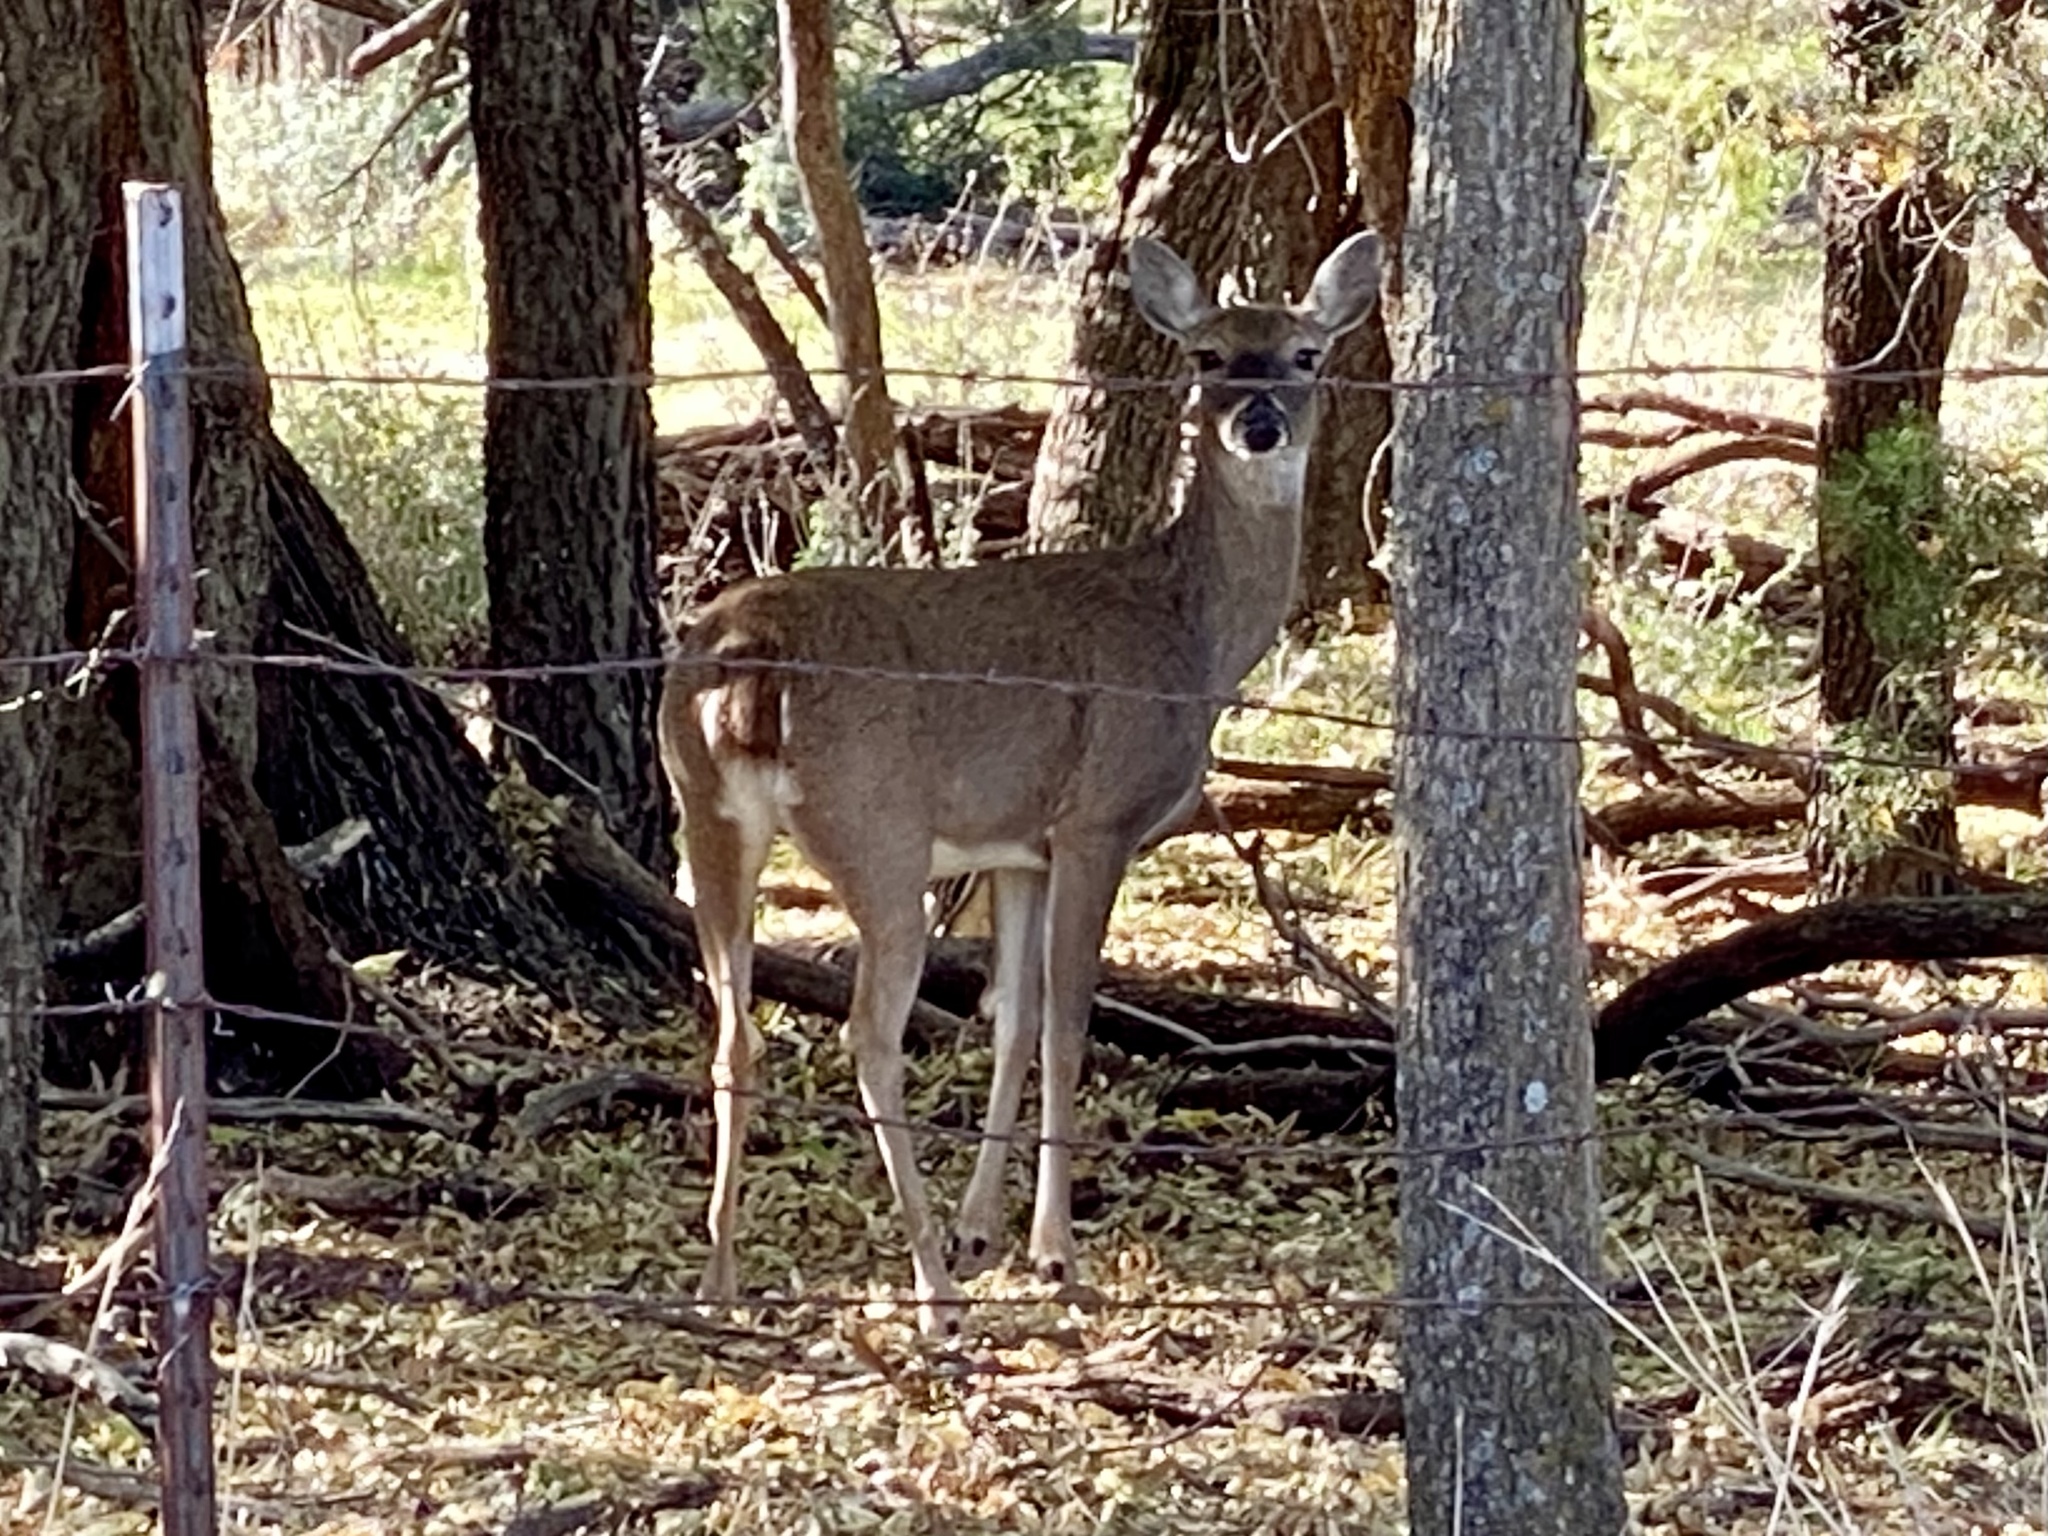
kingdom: Animalia
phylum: Chordata
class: Mammalia
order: Artiodactyla
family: Cervidae
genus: Odocoileus
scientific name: Odocoileus virginianus
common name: White-tailed deer
